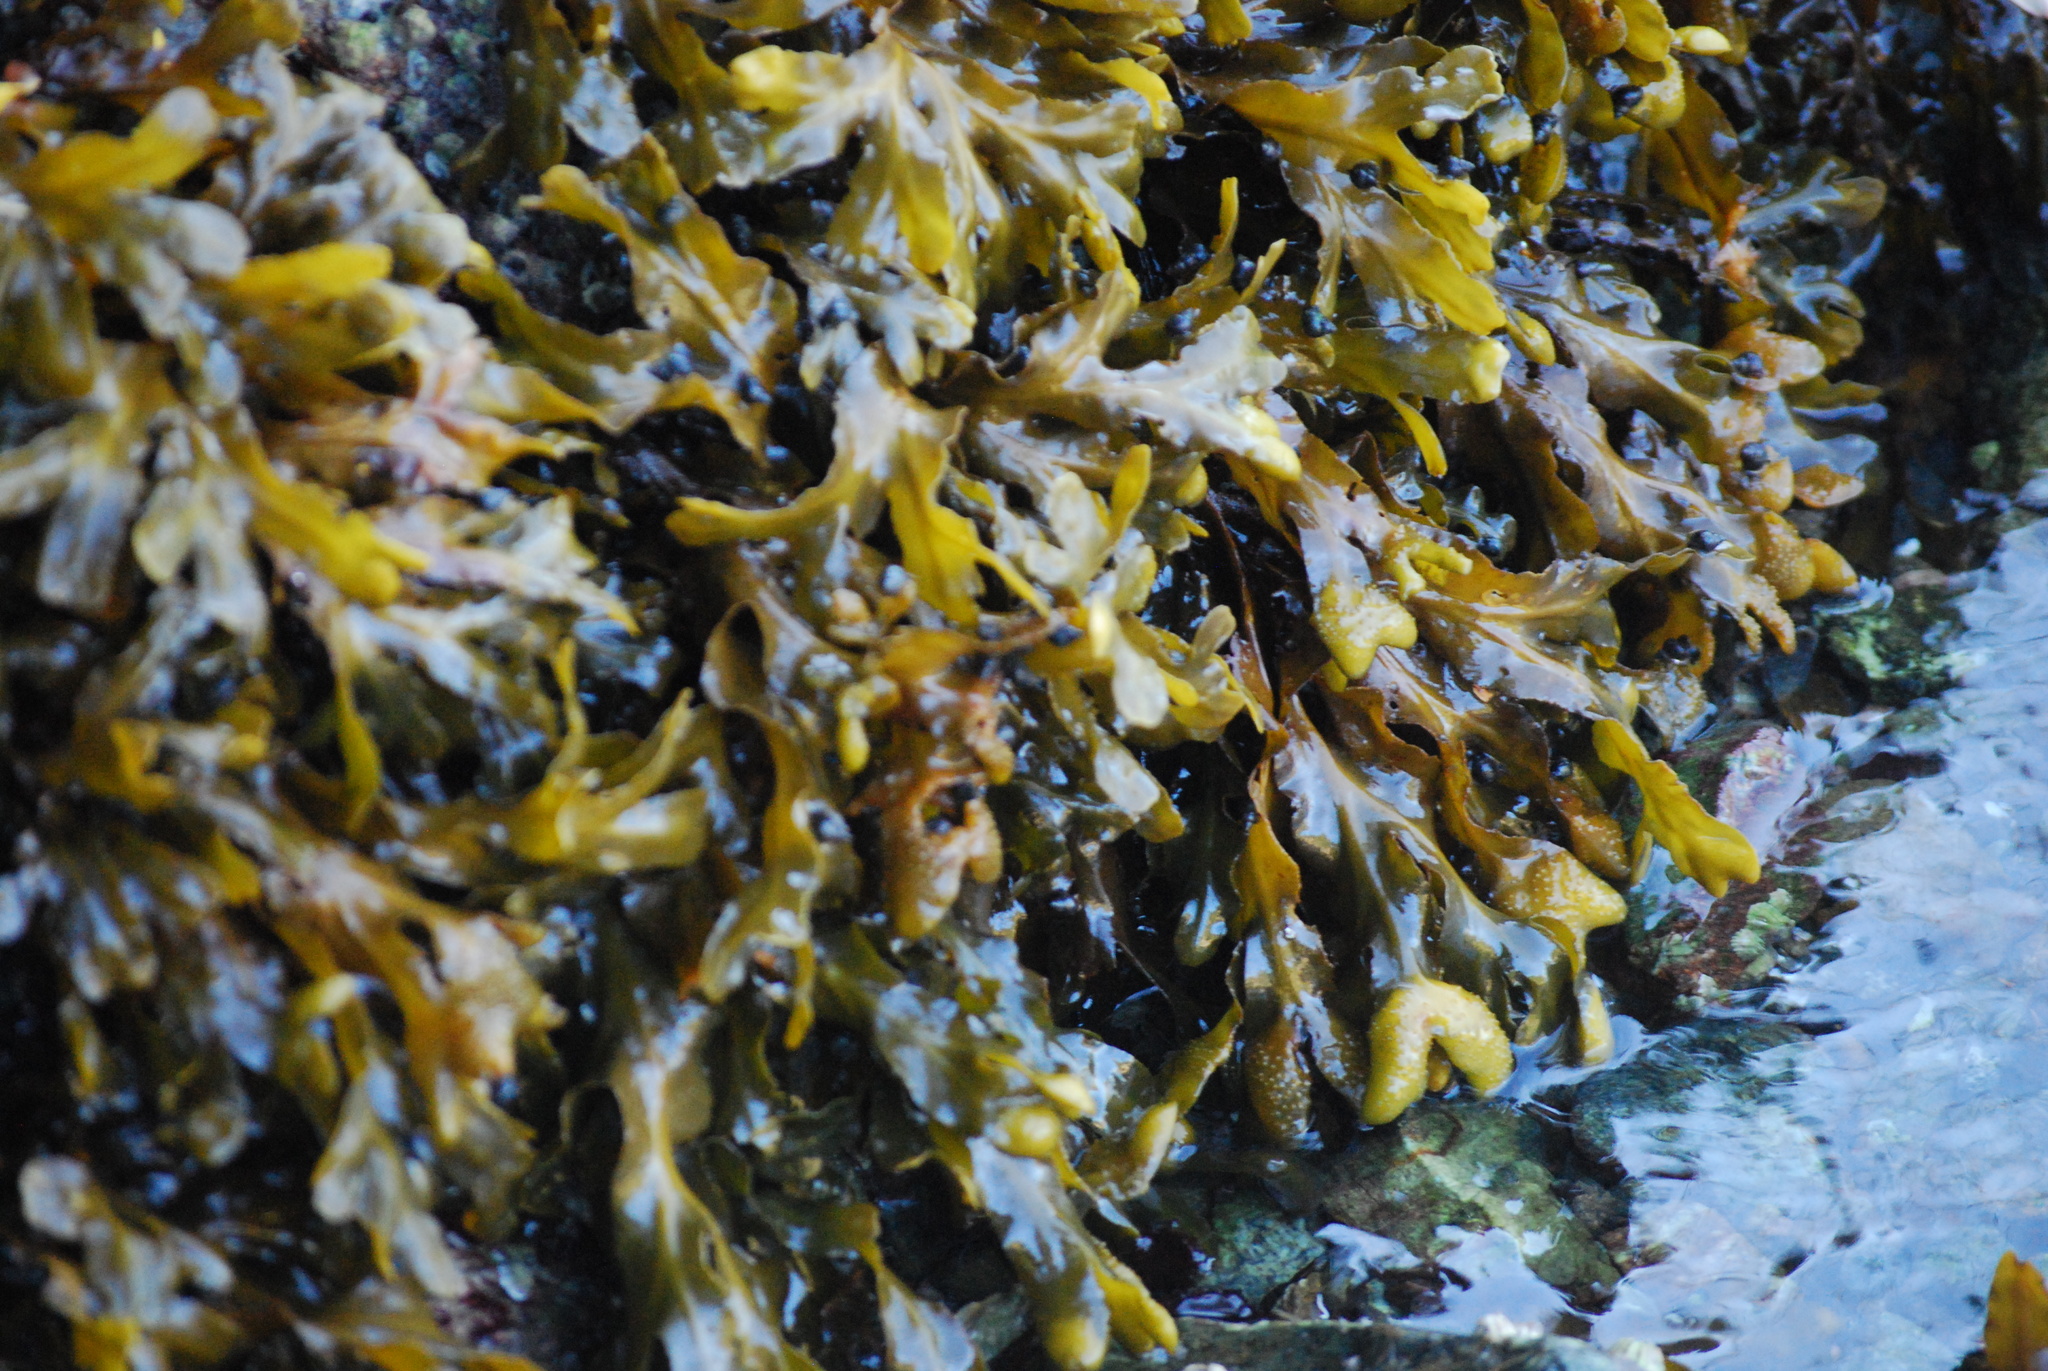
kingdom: Chromista
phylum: Ochrophyta
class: Phaeophyceae
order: Fucales
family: Fucaceae
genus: Fucus
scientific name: Fucus distichus
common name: Rockweed
